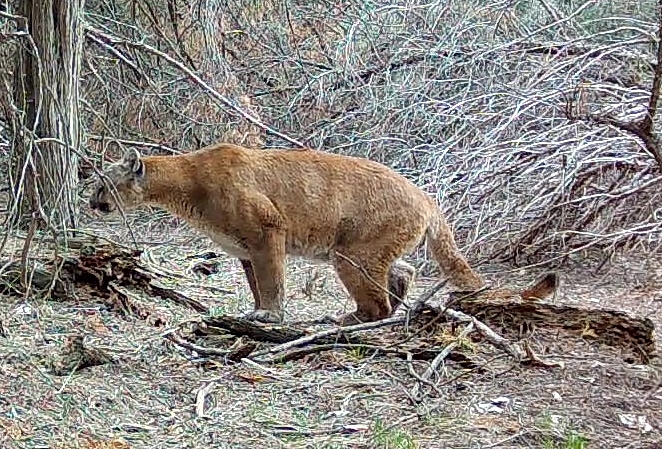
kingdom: Animalia
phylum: Chordata
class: Mammalia
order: Carnivora
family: Felidae
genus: Puma
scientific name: Puma concolor
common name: Puma
